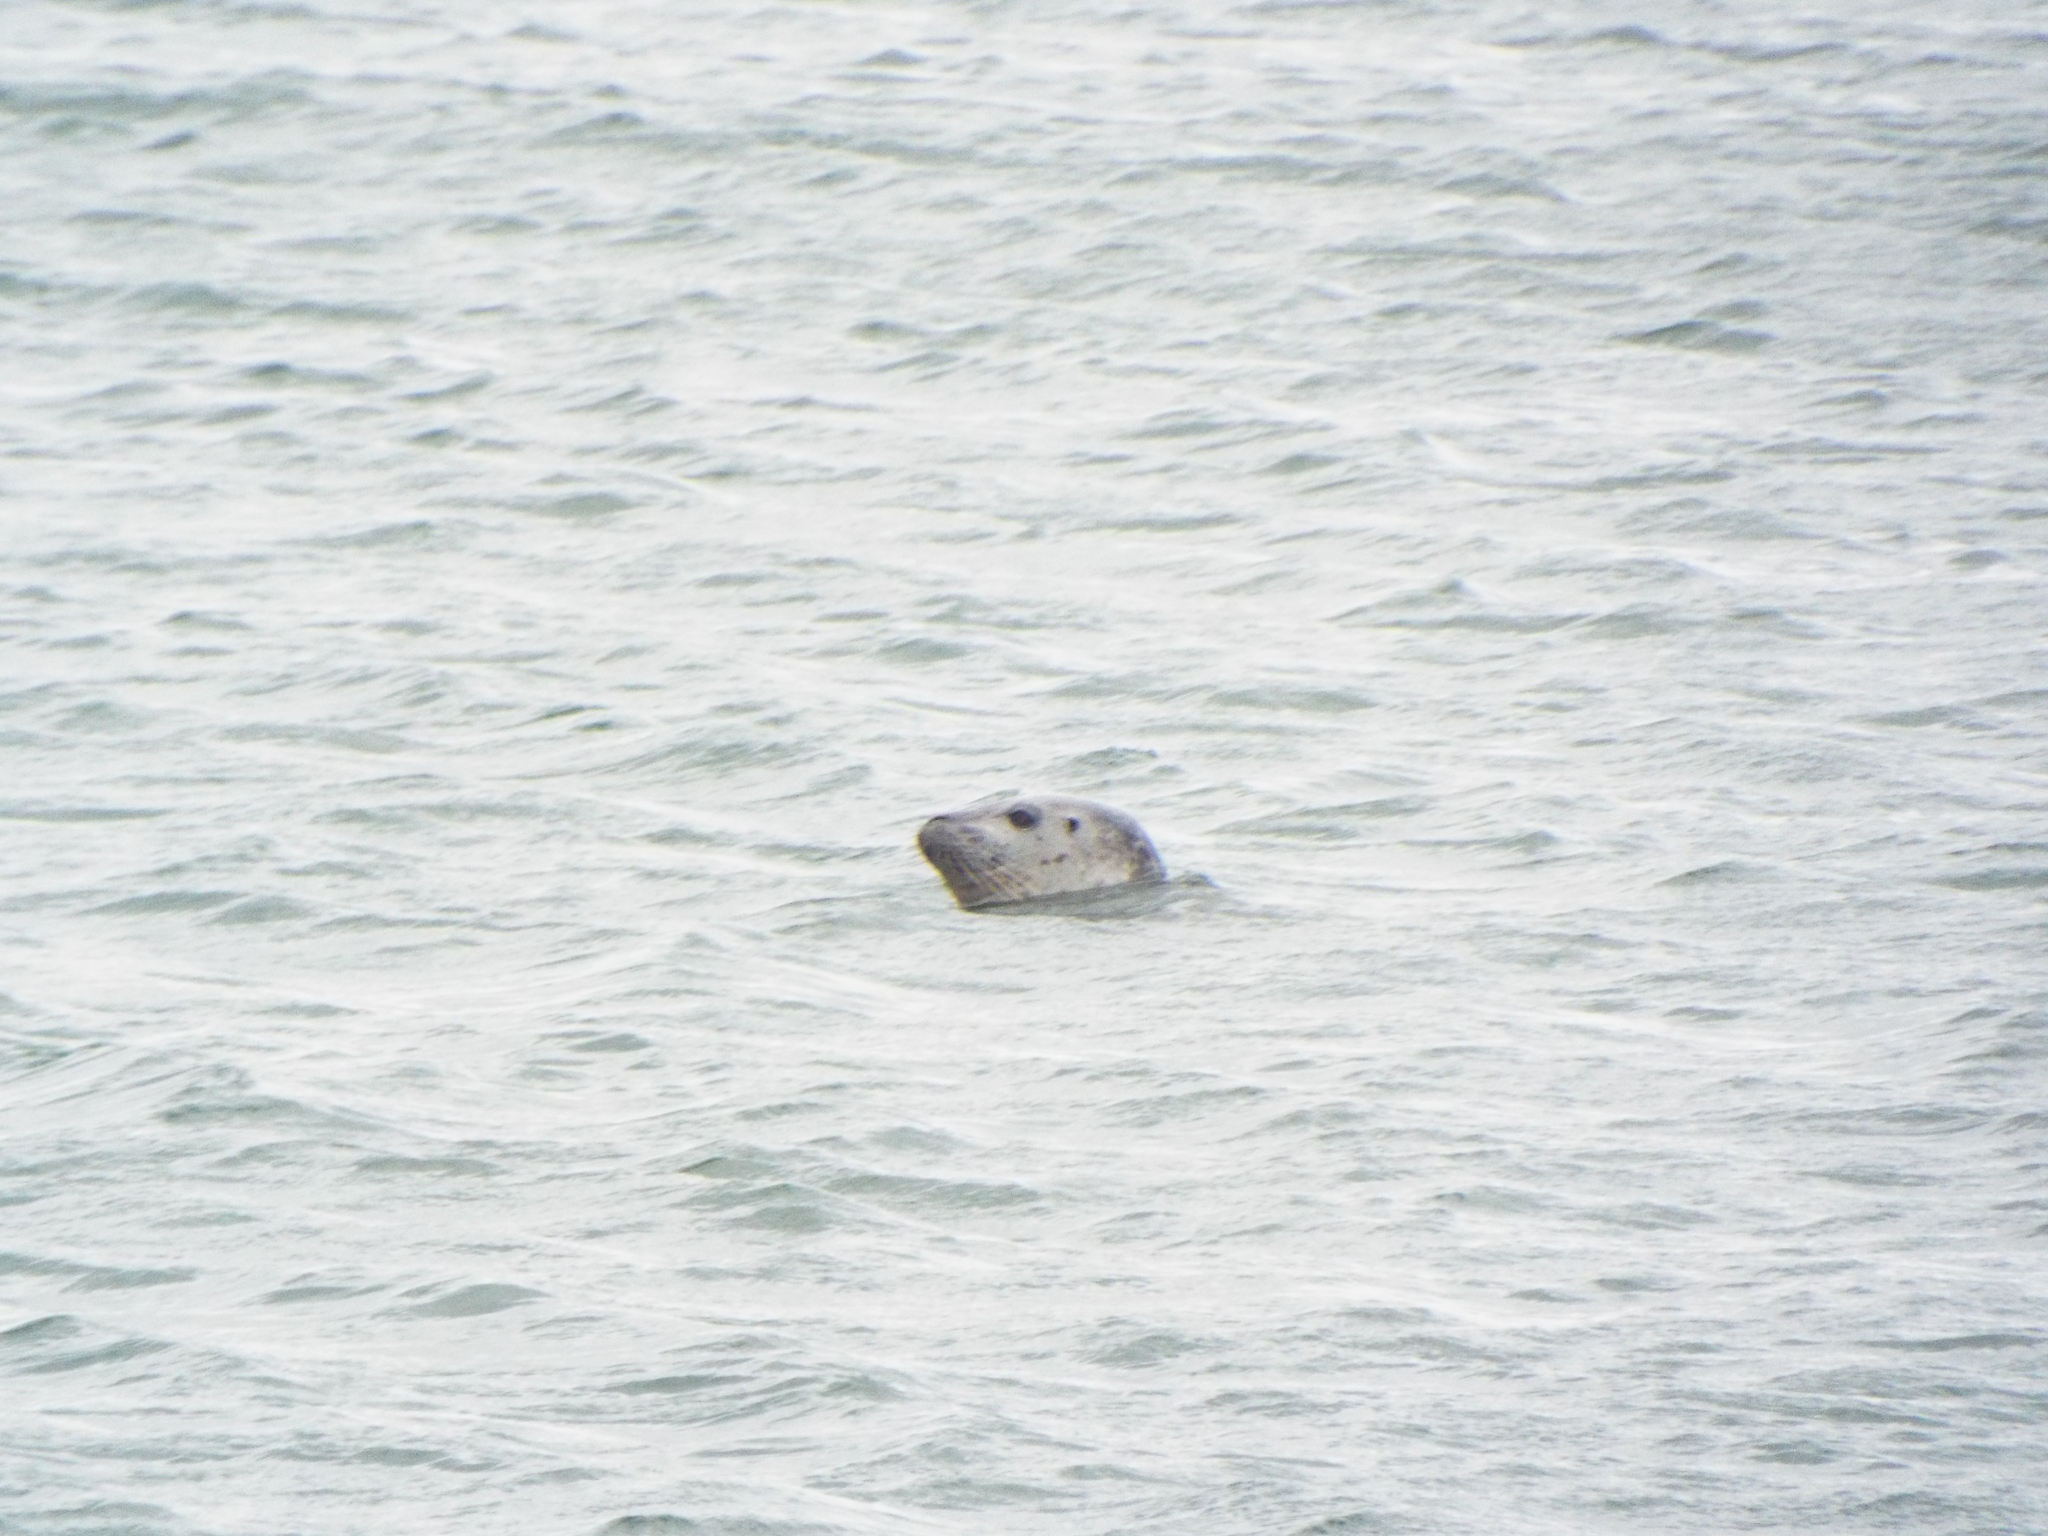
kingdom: Animalia
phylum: Chordata
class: Mammalia
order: Carnivora
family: Phocidae
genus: Phoca
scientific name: Phoca vitulina
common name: Harbor seal
